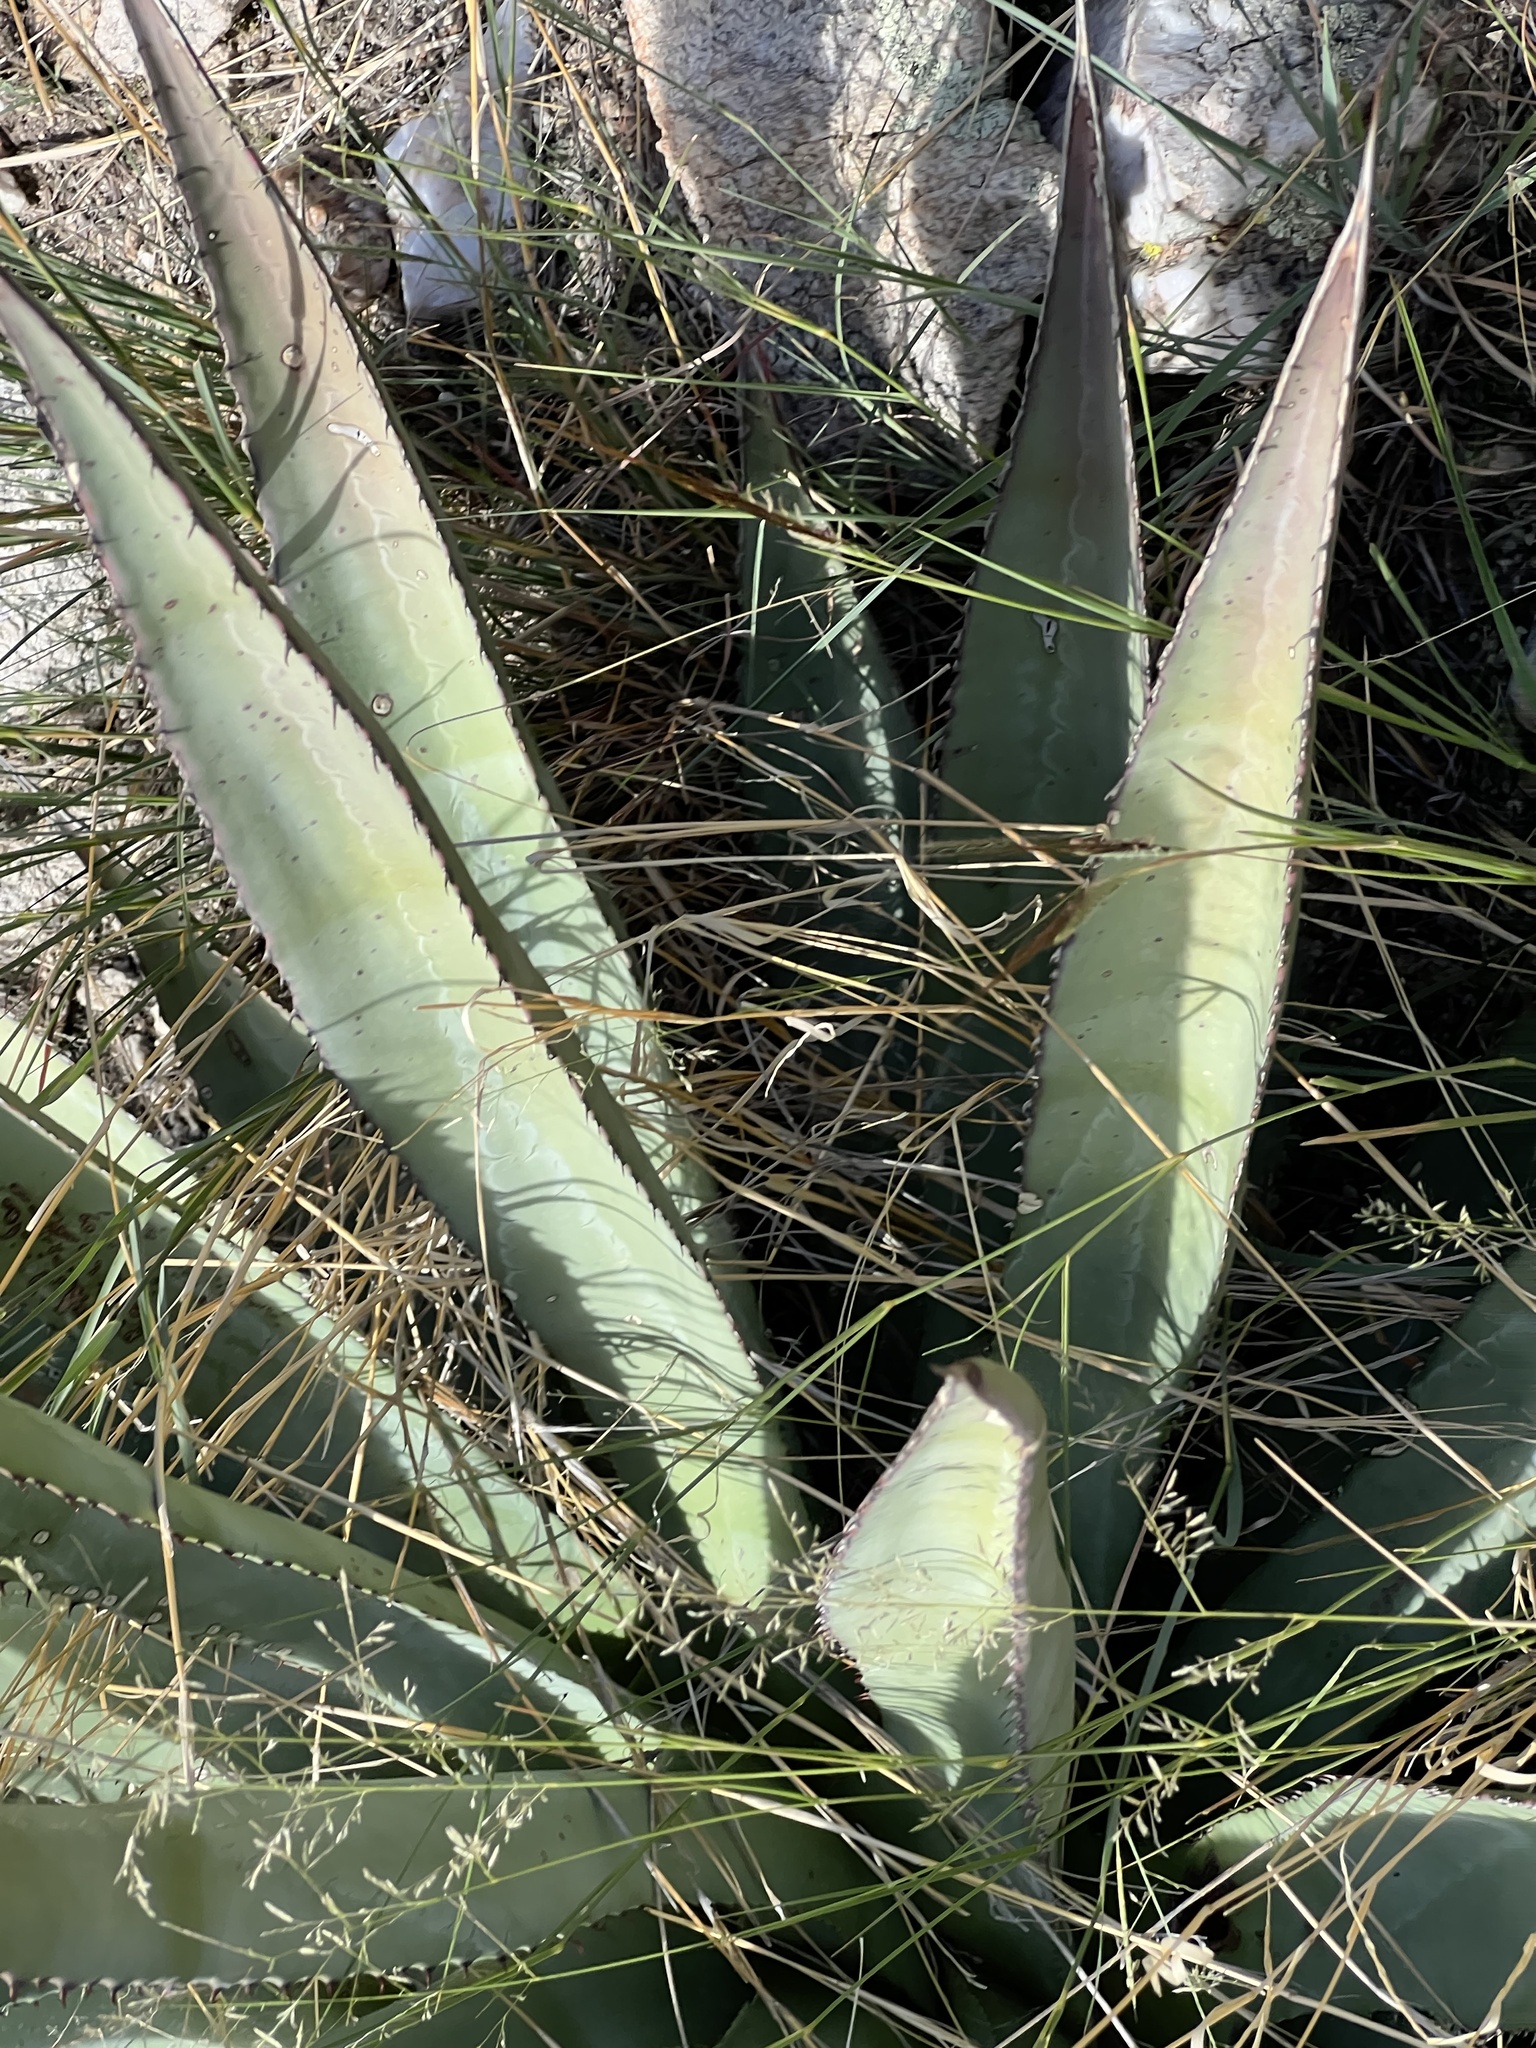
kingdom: Plantae
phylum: Tracheophyta
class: Liliopsida
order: Asparagales
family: Asparagaceae
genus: Agave
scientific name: Agave palmeri
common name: Palmer agave
